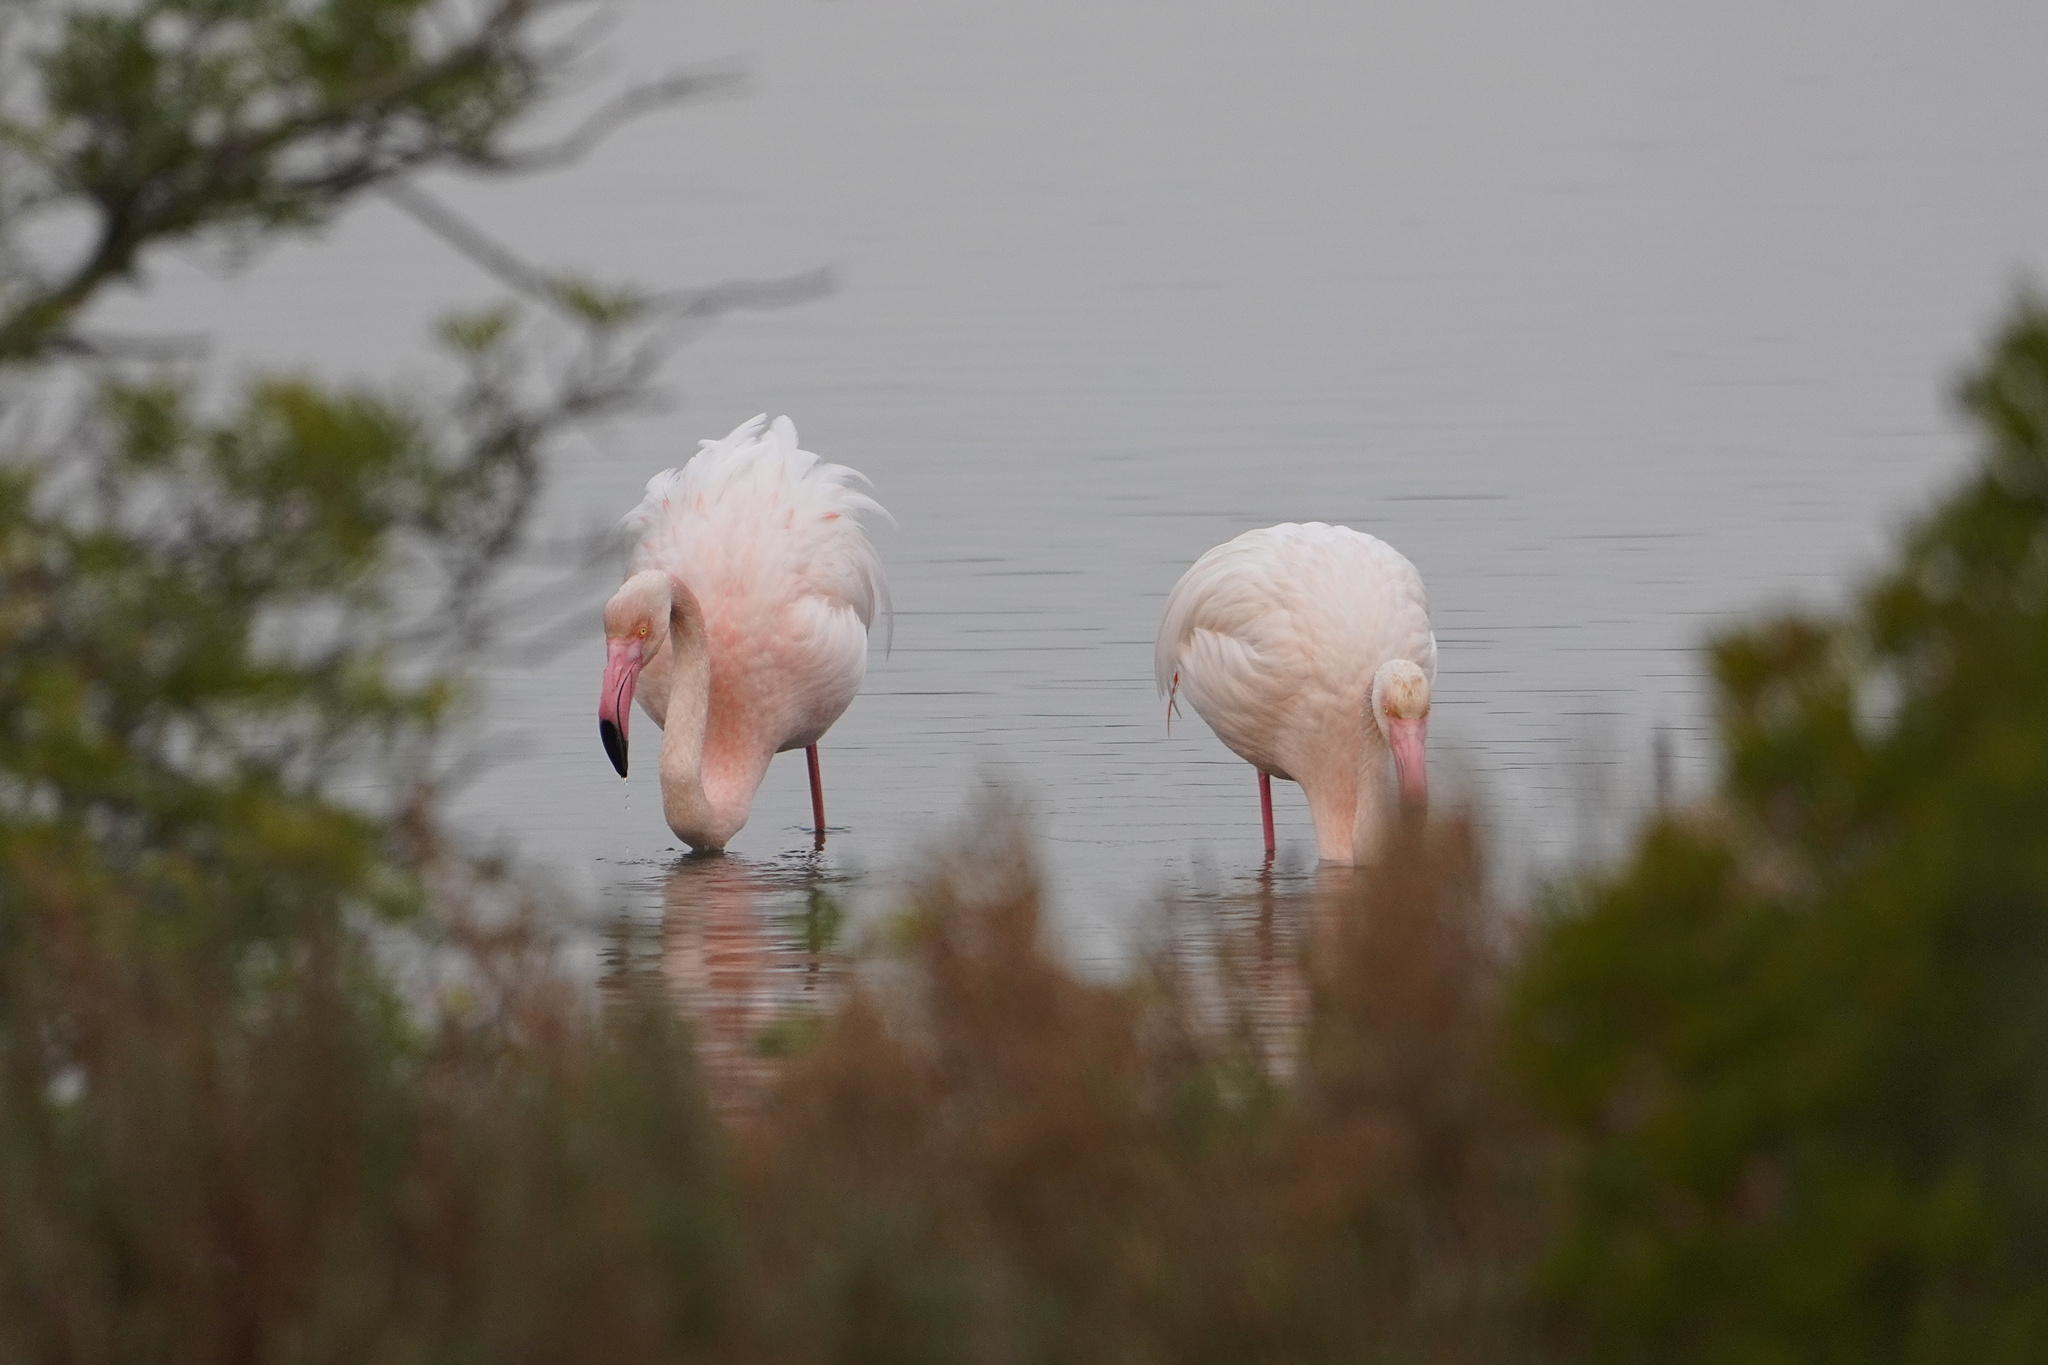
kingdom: Animalia
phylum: Chordata
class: Aves
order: Phoenicopteriformes
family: Phoenicopteridae
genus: Phoenicopterus
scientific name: Phoenicopterus roseus
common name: Greater flamingo
